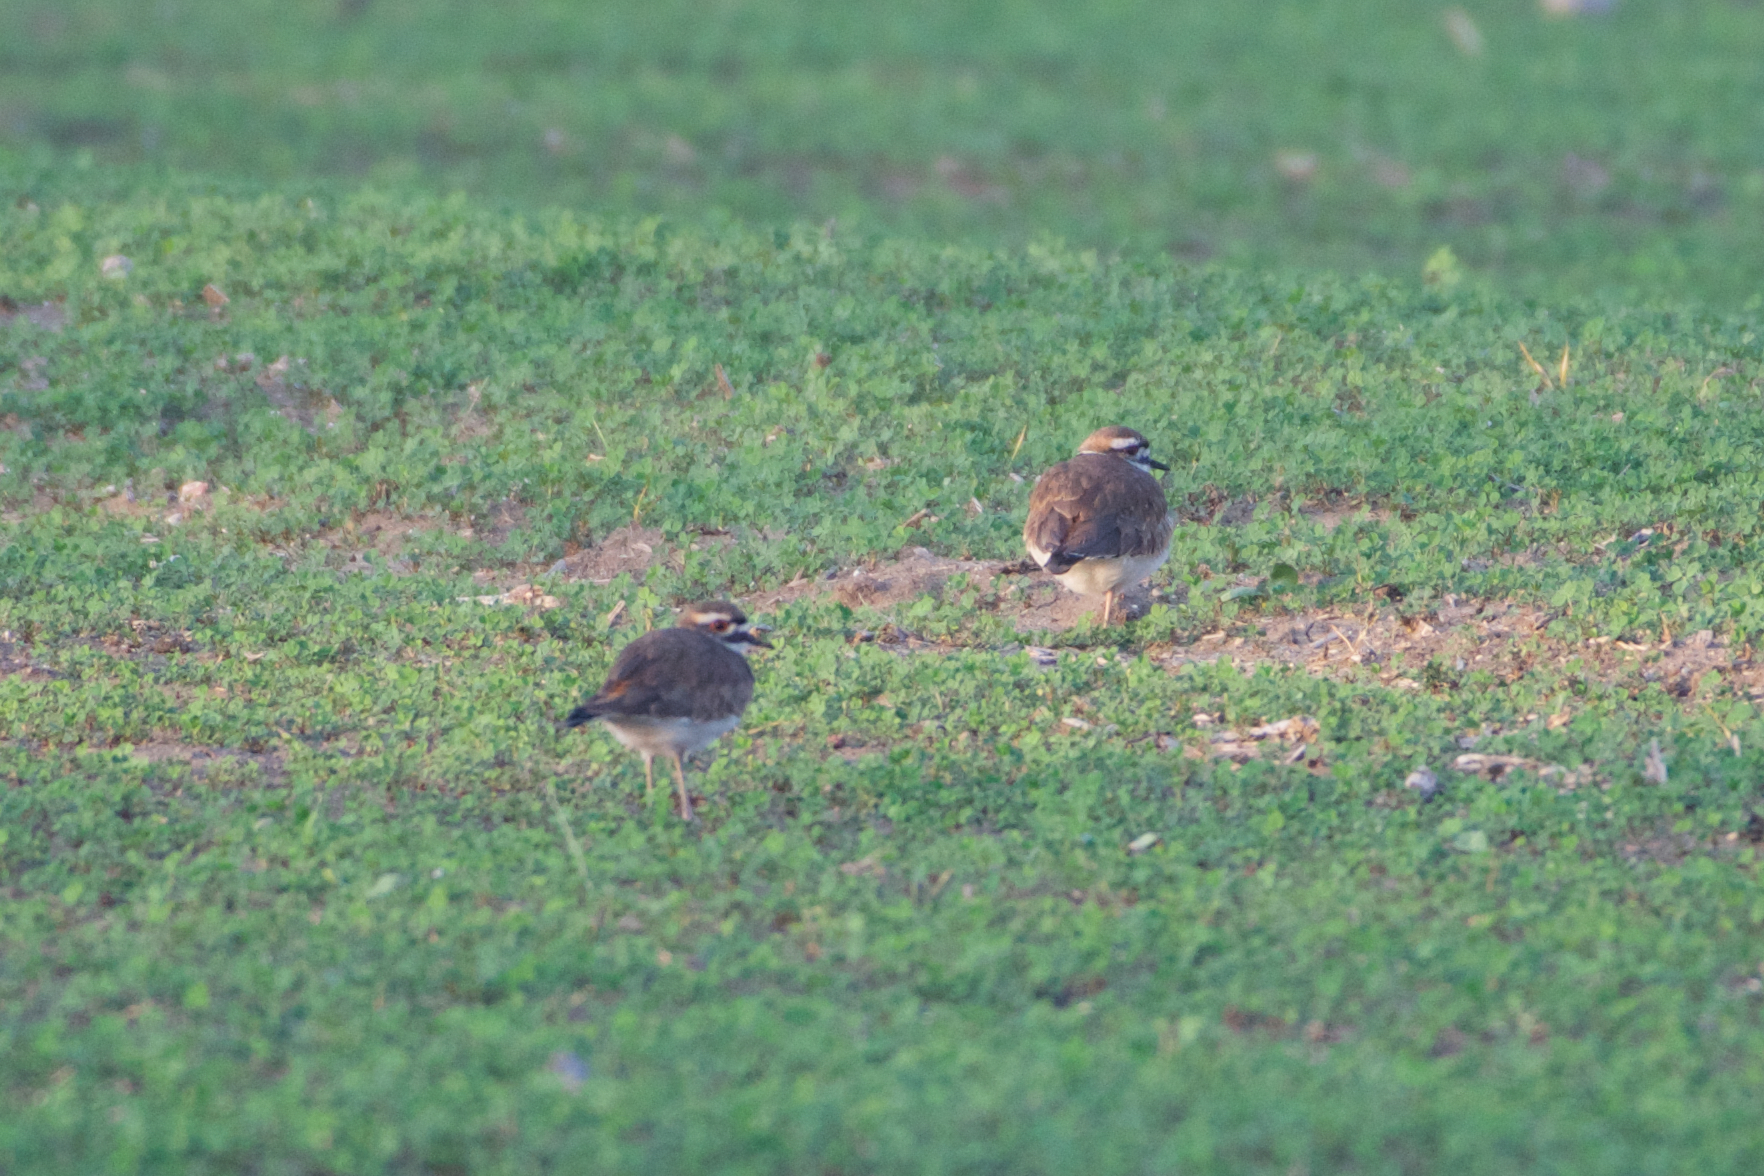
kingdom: Animalia
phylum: Chordata
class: Aves
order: Charadriiformes
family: Charadriidae
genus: Charadrius
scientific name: Charadrius vociferus
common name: Killdeer
